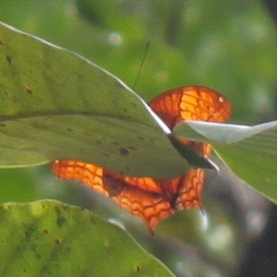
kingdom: Animalia
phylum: Arthropoda
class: Insecta
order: Lepidoptera
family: Nymphalidae
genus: Vindula
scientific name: Vindula erota
